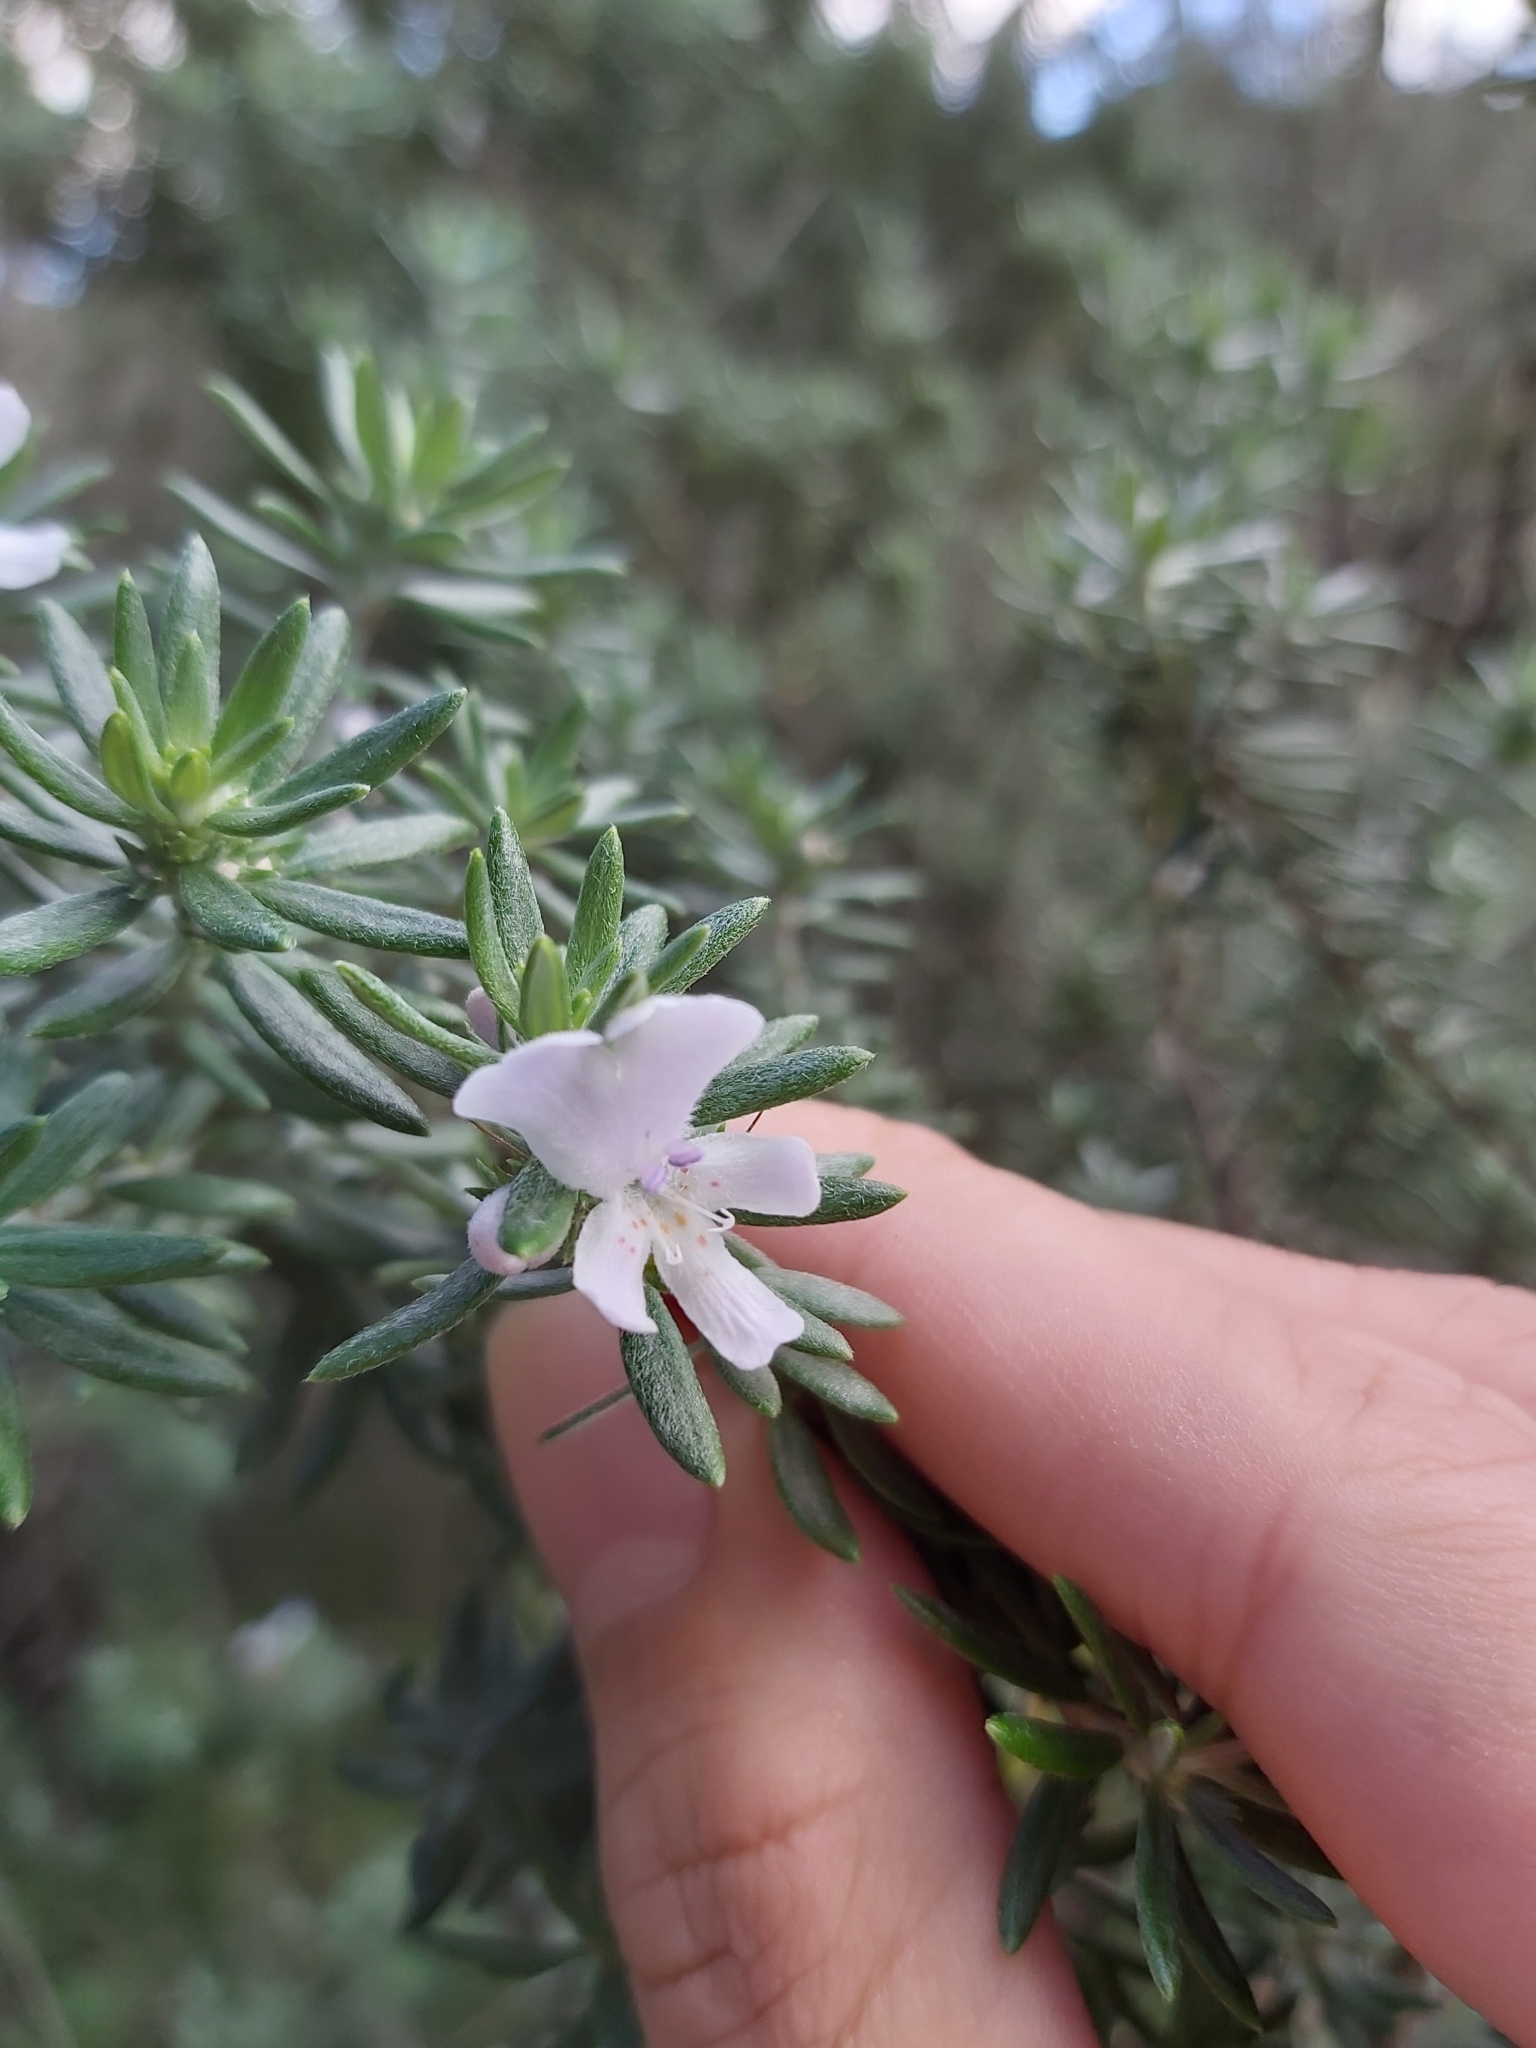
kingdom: Plantae
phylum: Tracheophyta
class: Magnoliopsida
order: Lamiales
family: Lamiaceae
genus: Westringia
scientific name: Westringia fruticosa
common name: Coastal-rosemary
